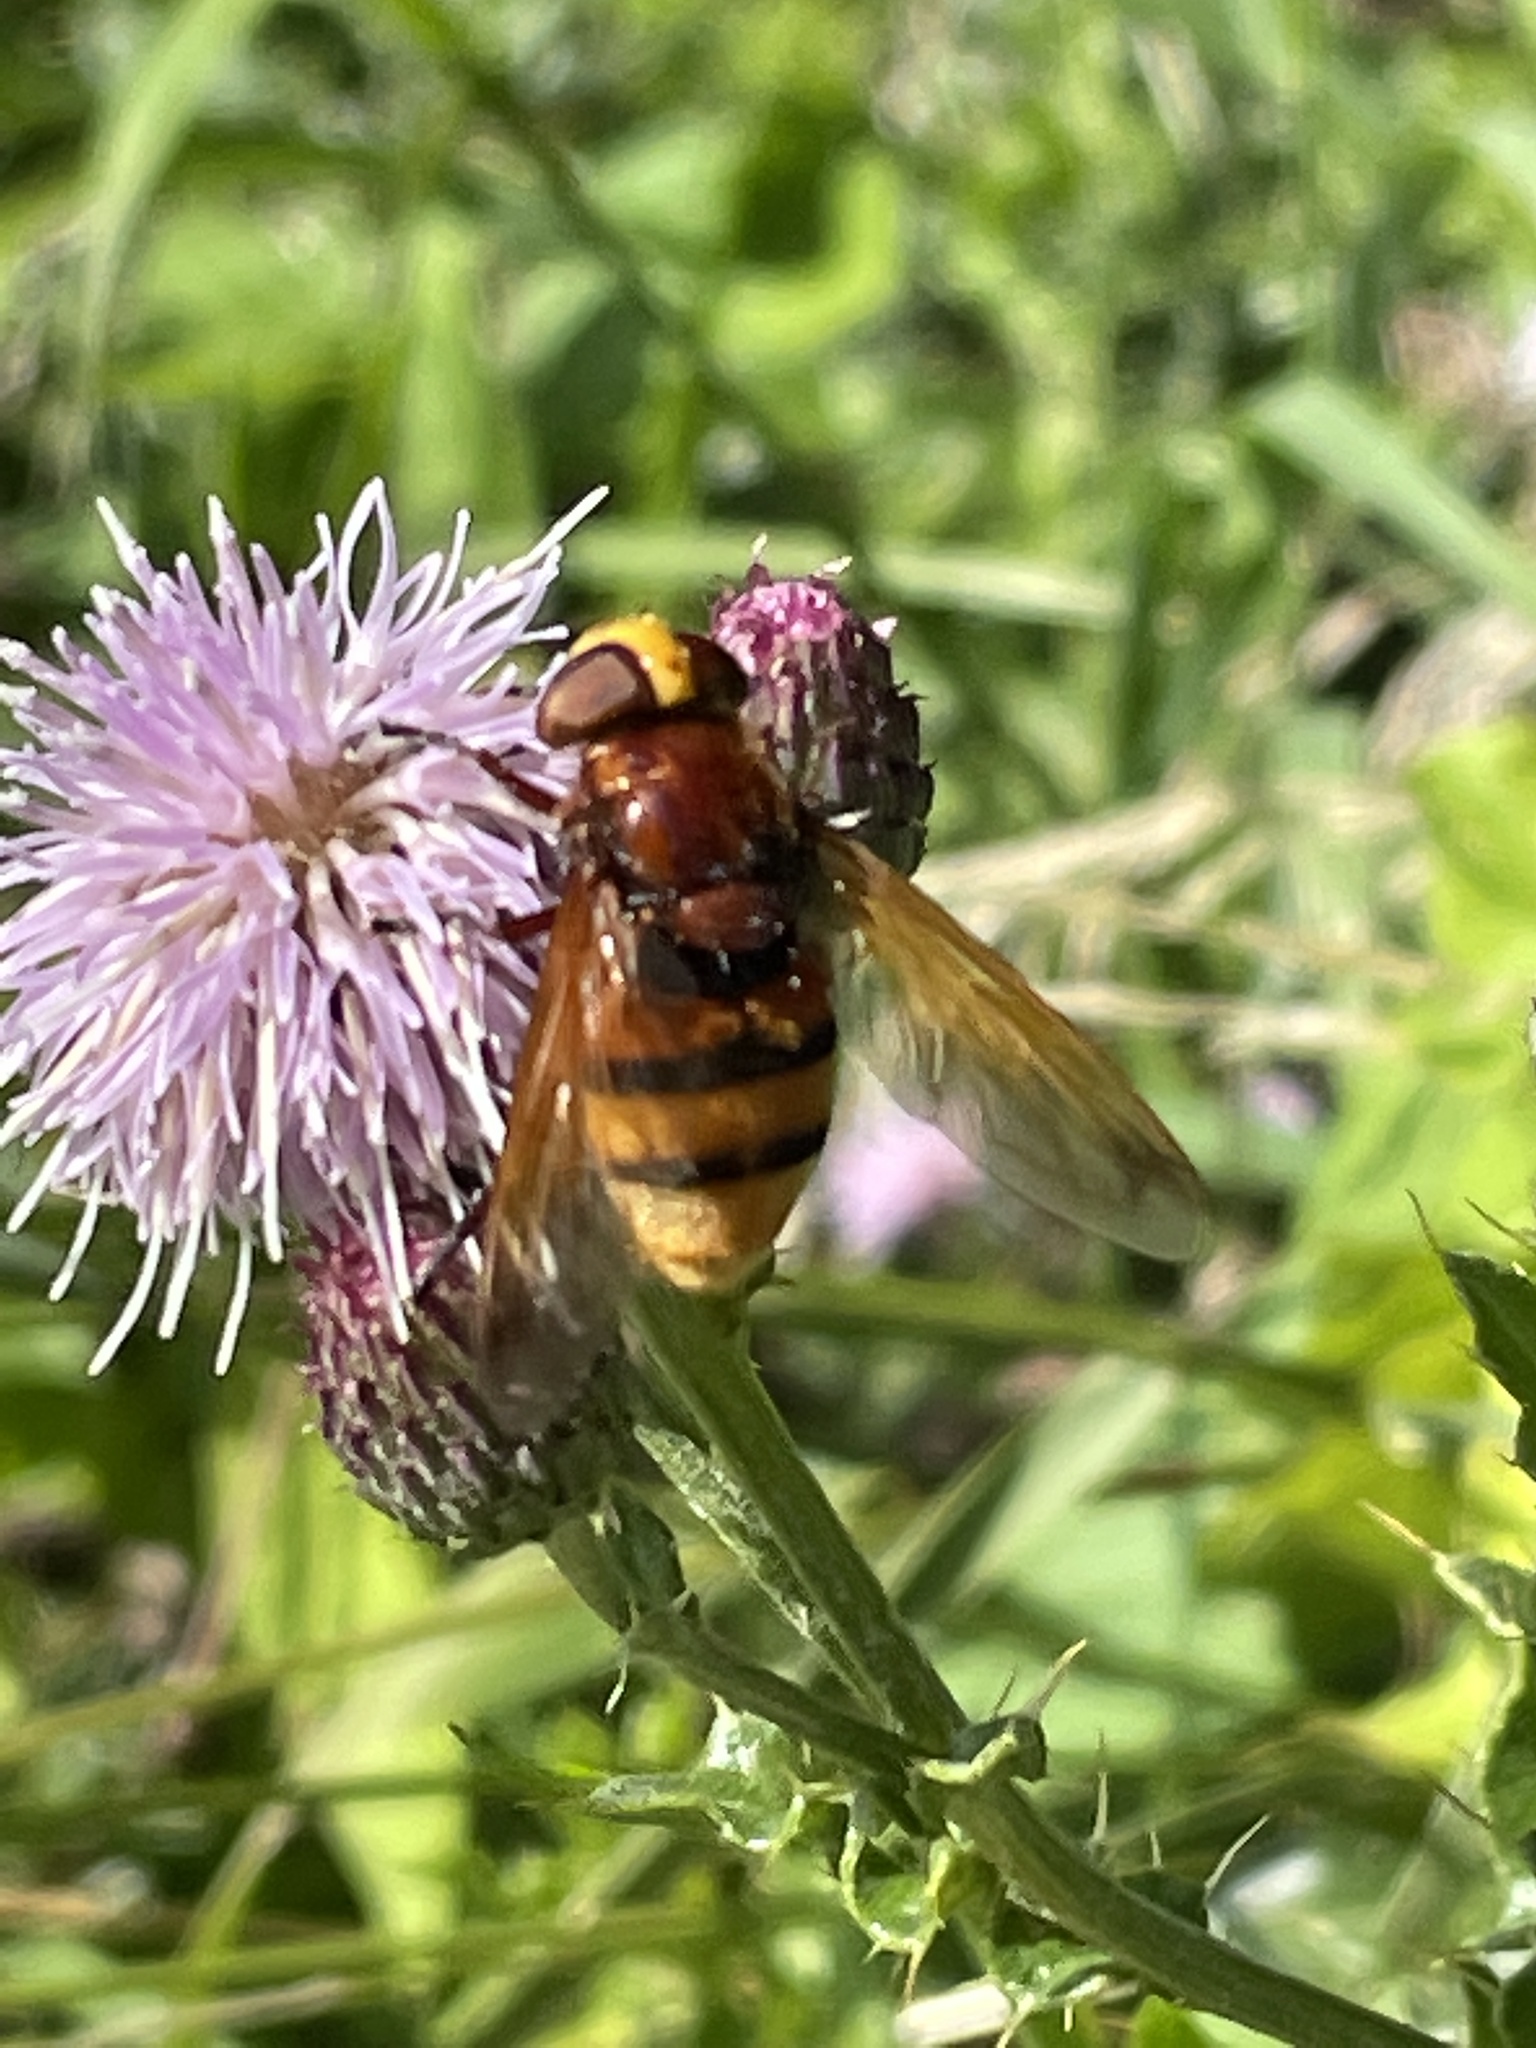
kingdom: Animalia
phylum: Arthropoda
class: Insecta
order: Diptera
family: Syrphidae
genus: Volucella
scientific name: Volucella zonaria
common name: Hornet hoverfly
